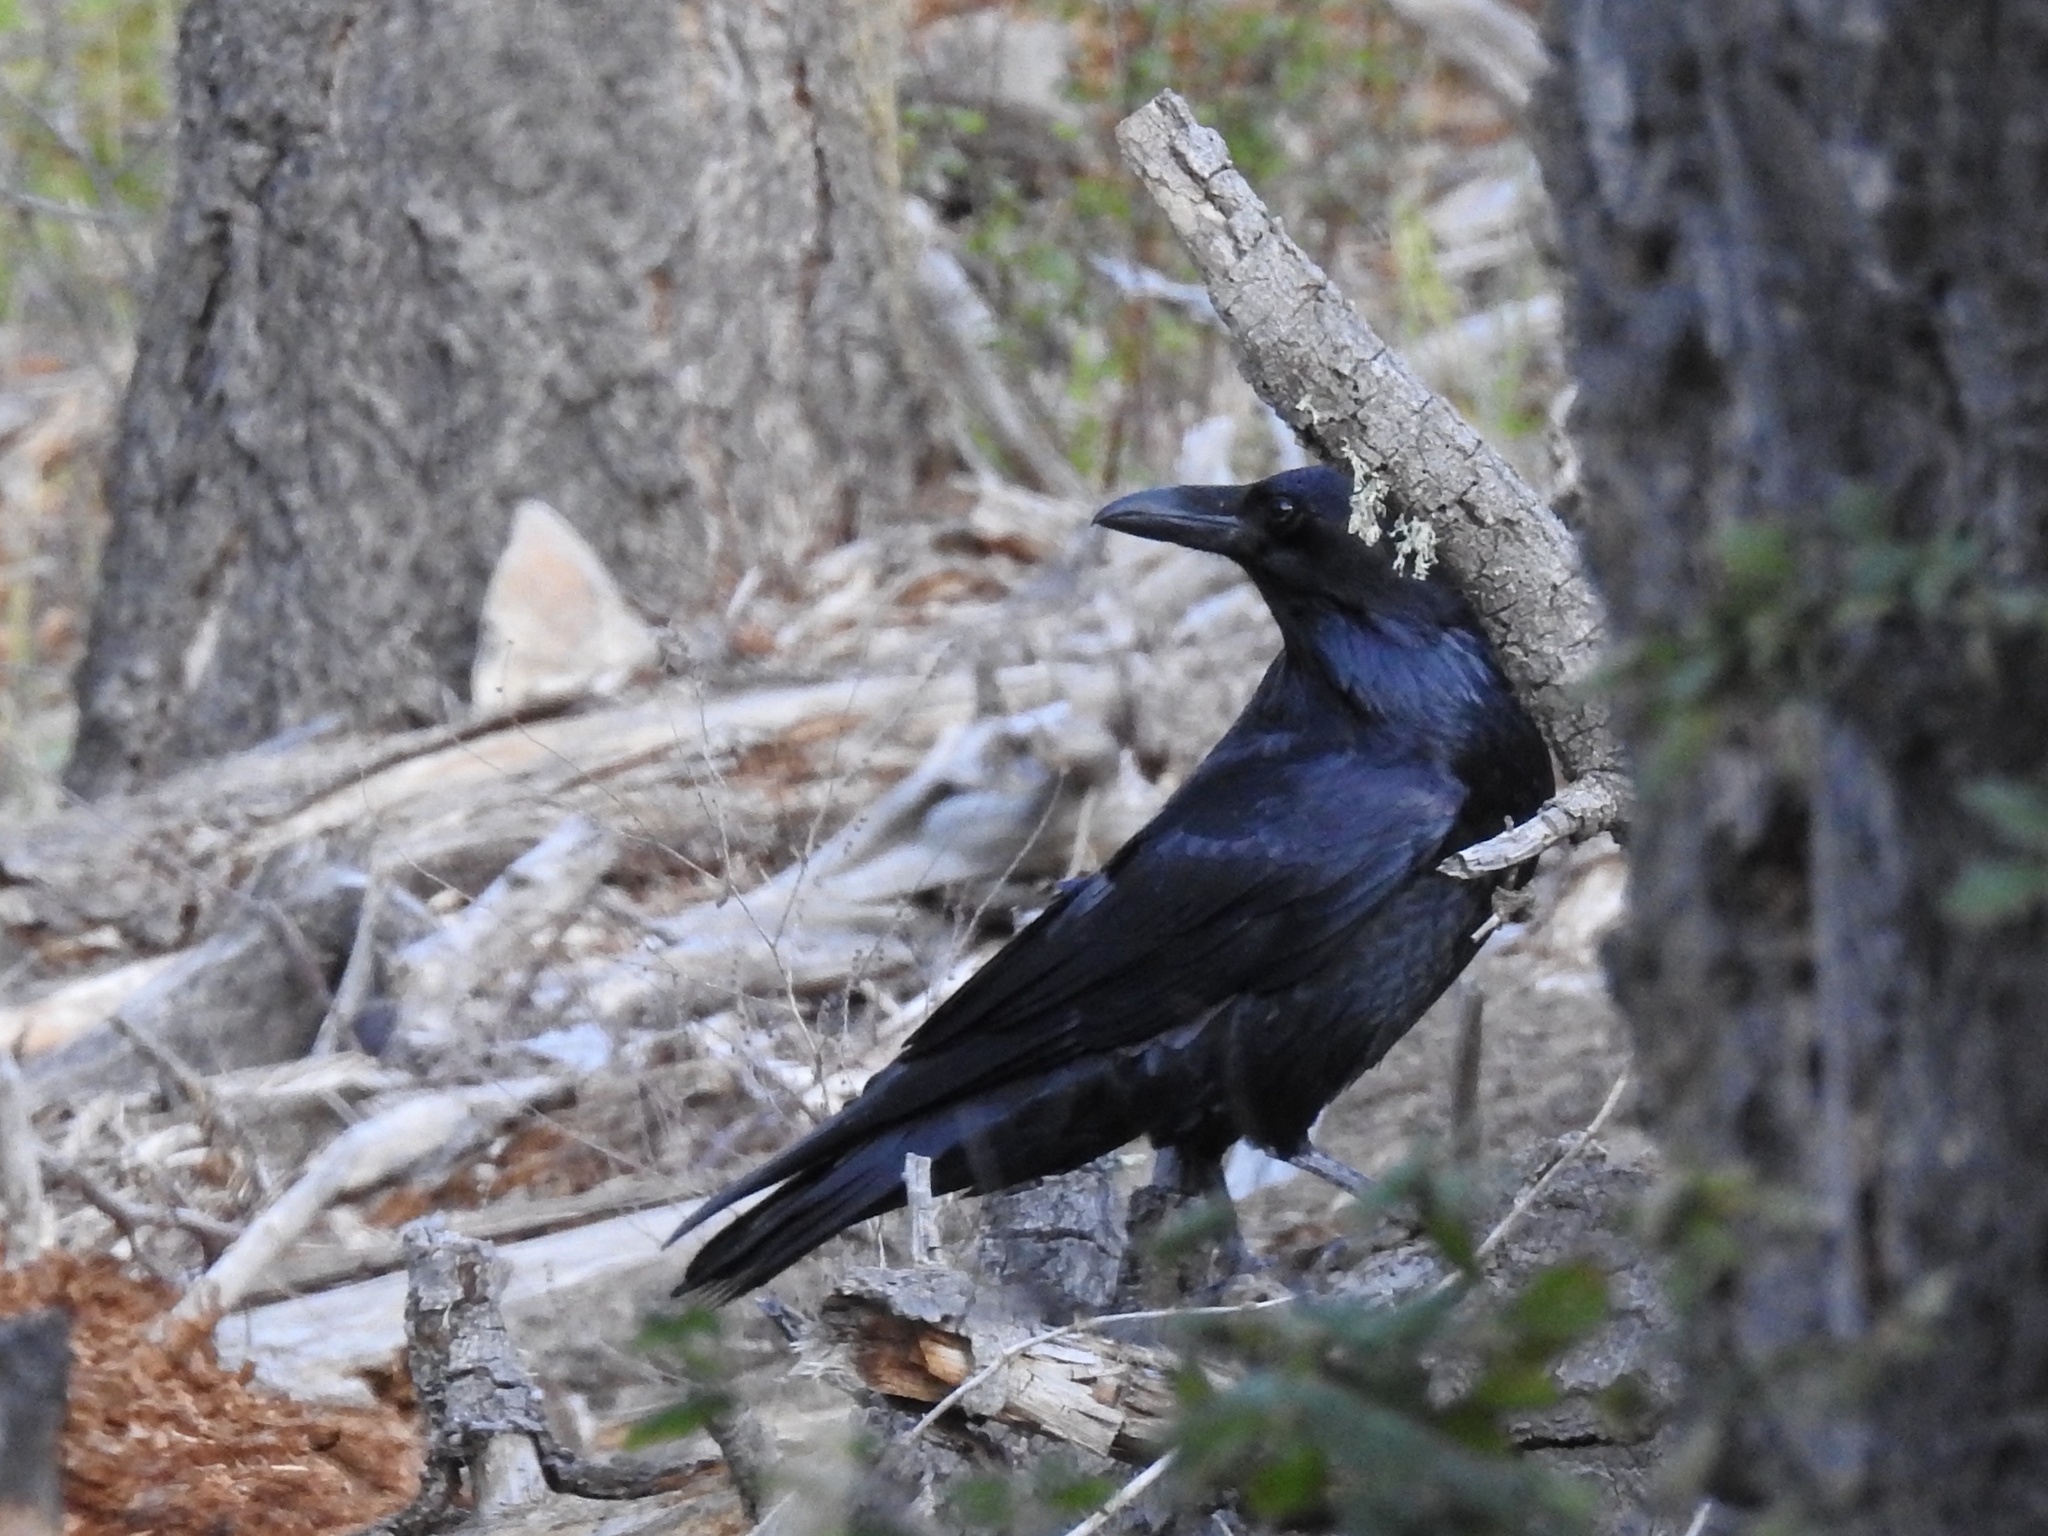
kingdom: Animalia
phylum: Chordata
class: Aves
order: Passeriformes
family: Corvidae
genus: Corvus
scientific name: Corvus corax
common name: Common raven
